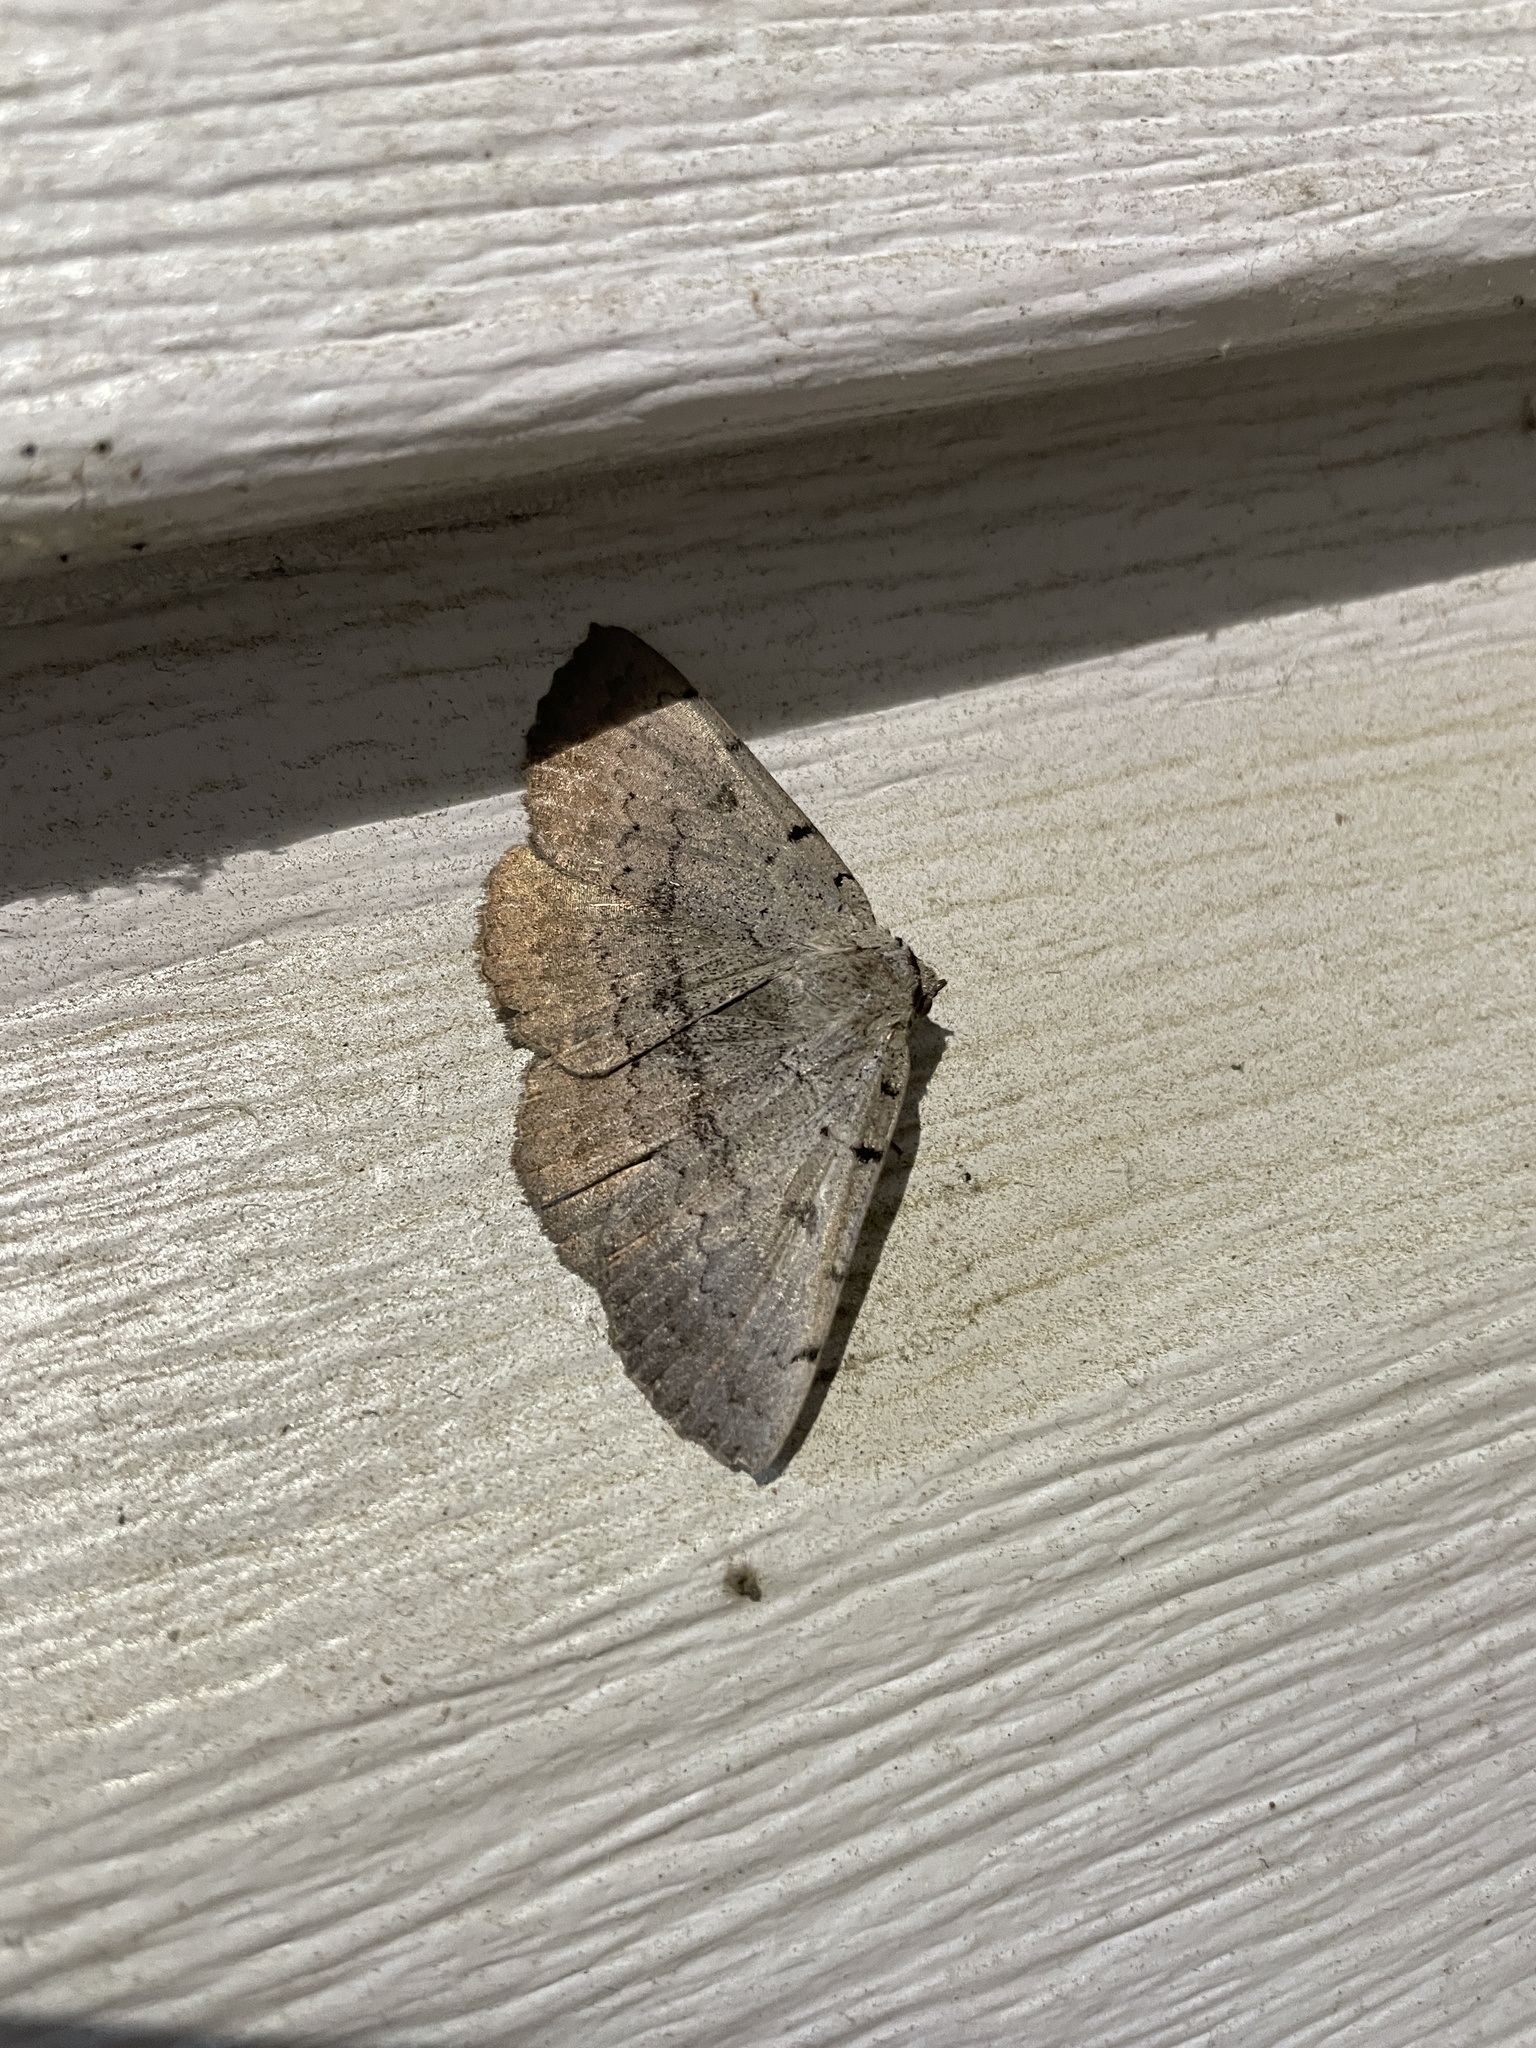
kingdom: Animalia
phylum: Arthropoda
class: Insecta
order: Lepidoptera
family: Erebidae
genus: Spiloloma
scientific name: Spiloloma lunilinea
